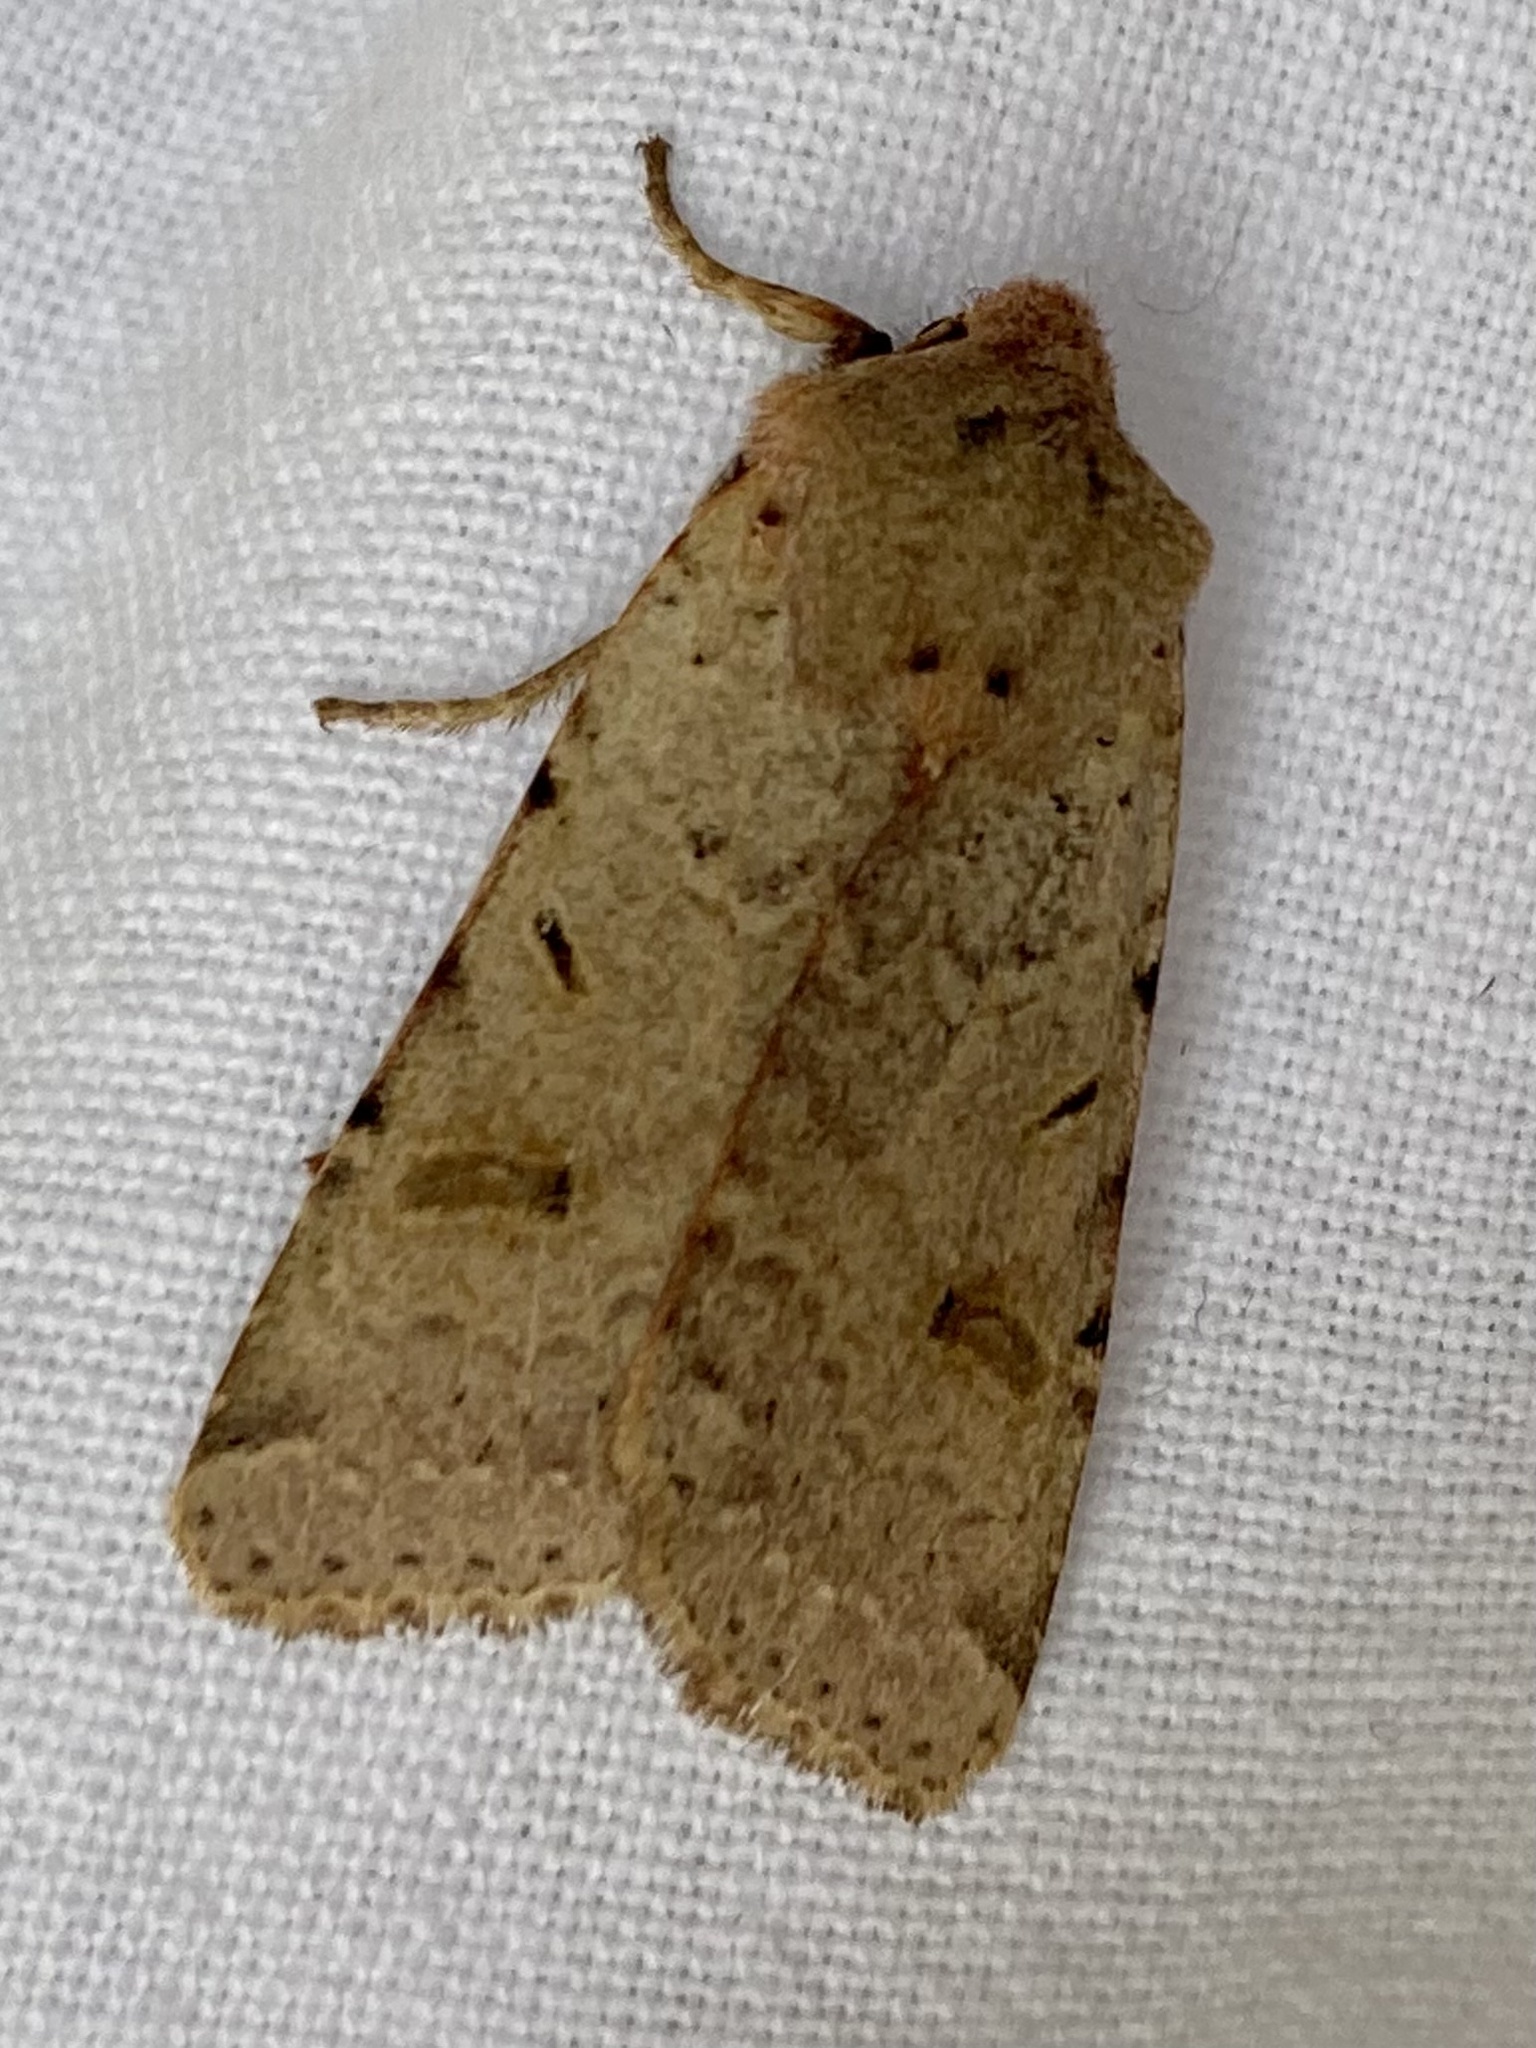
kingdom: Animalia
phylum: Arthropoda
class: Insecta
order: Lepidoptera
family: Noctuidae
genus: Agrochola
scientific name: Agrochola lychnidis
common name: Beaded chestnut
